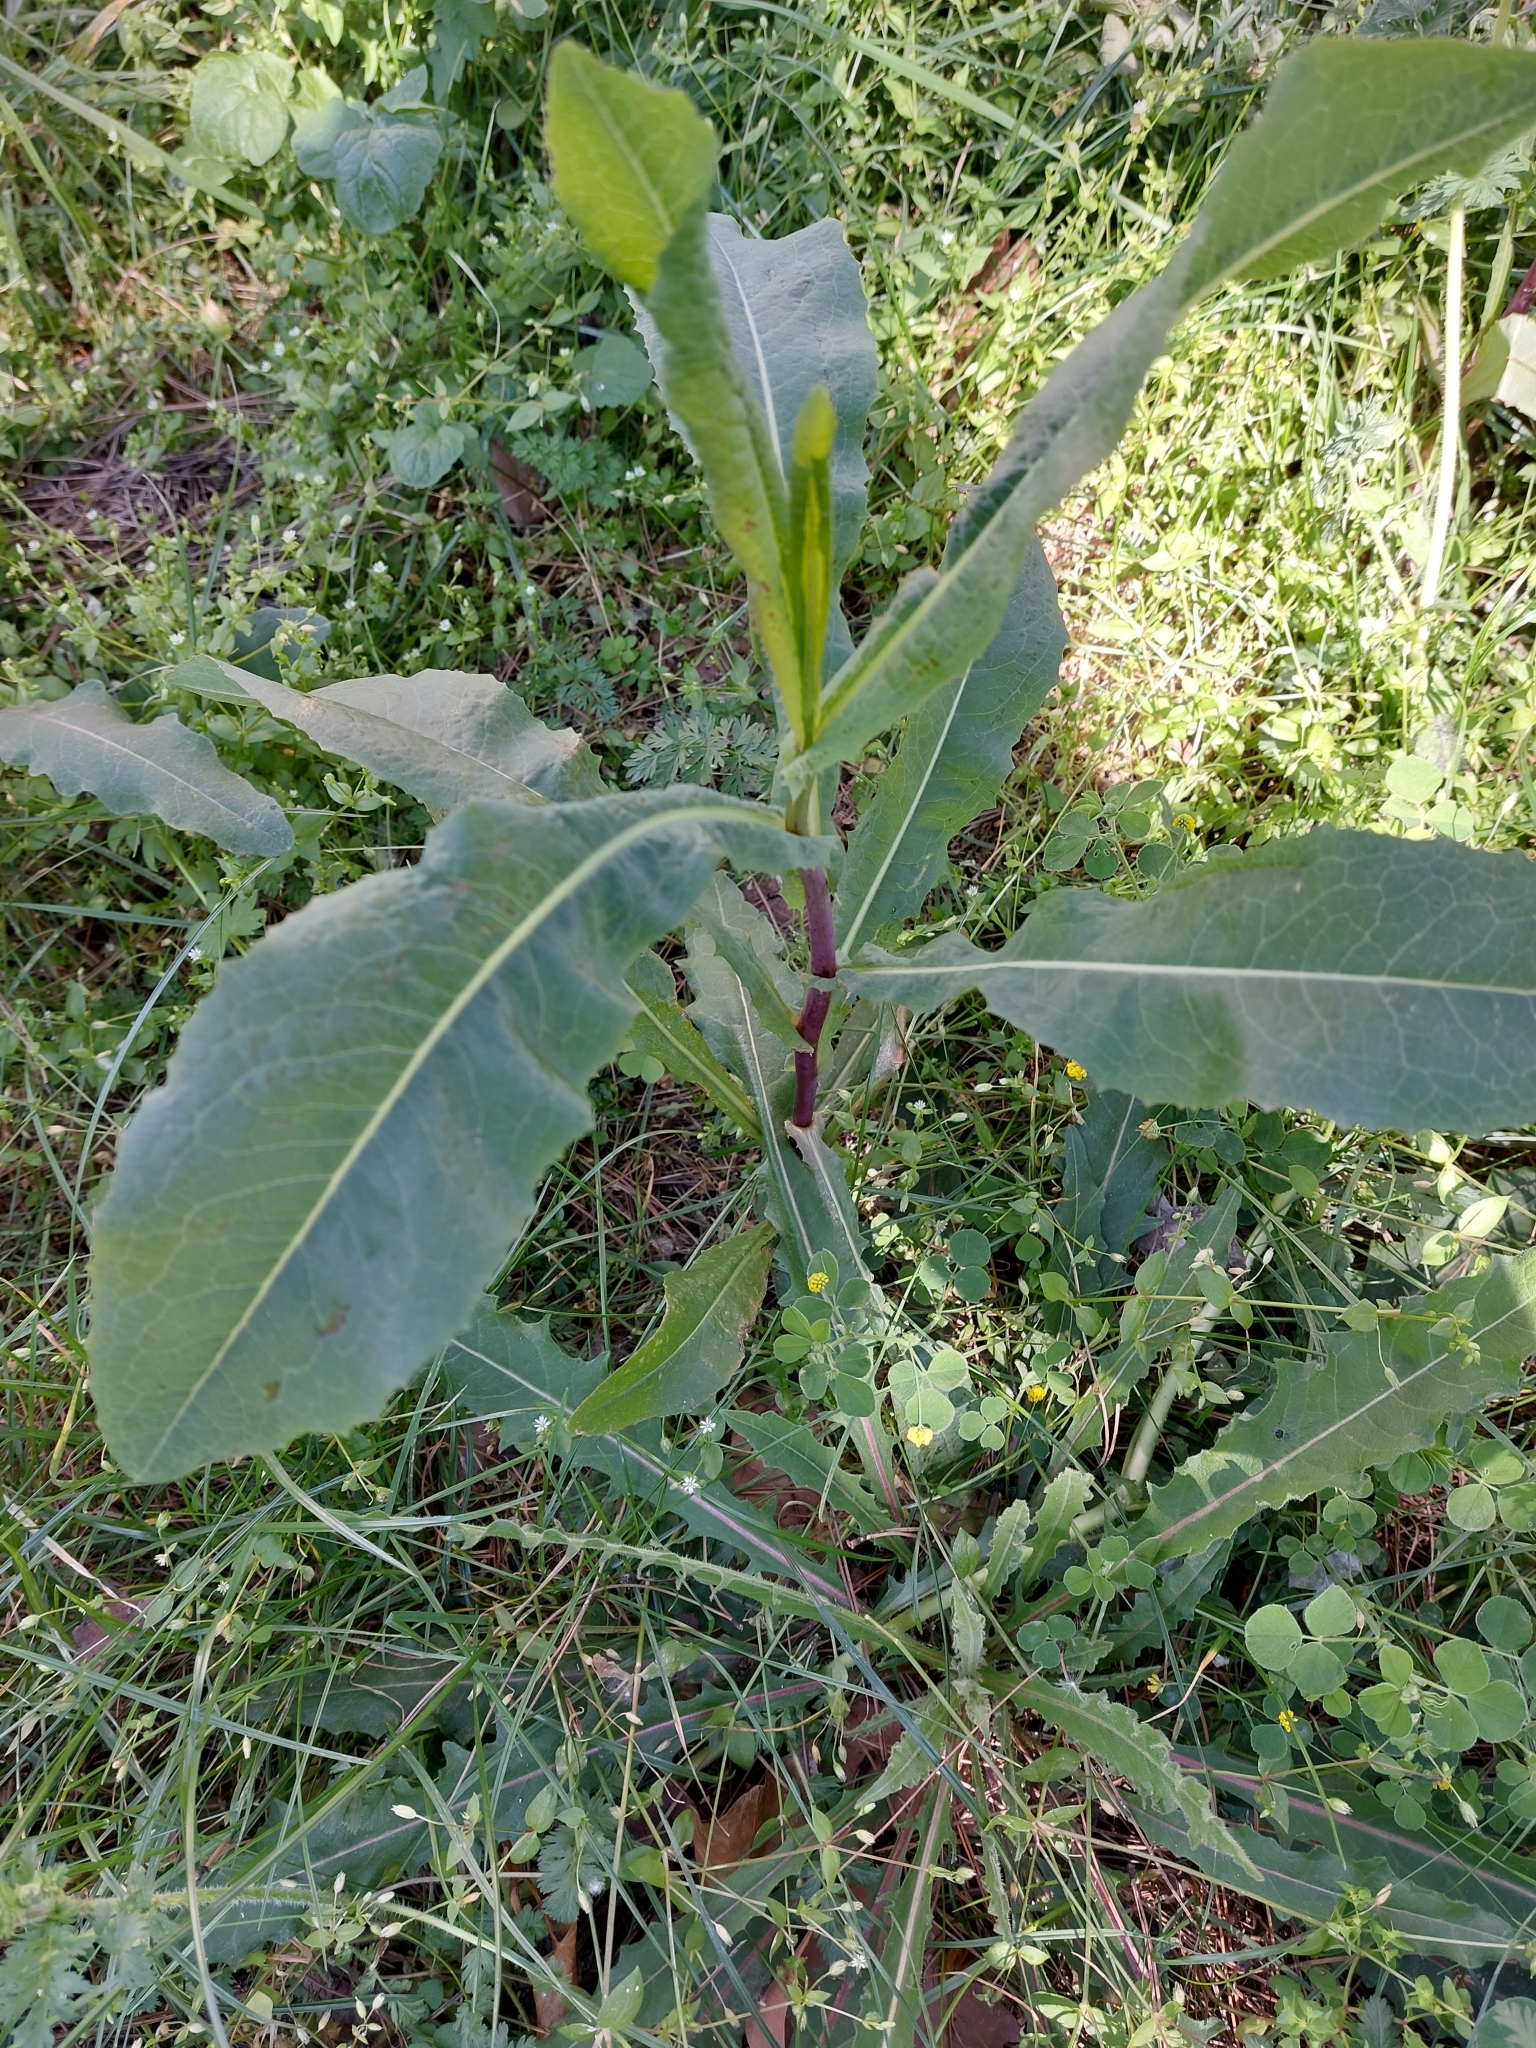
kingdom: Plantae
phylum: Tracheophyta
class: Magnoliopsida
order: Asterales
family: Asteraceae
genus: Lactuca
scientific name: Lactuca serriola
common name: Prickly lettuce
